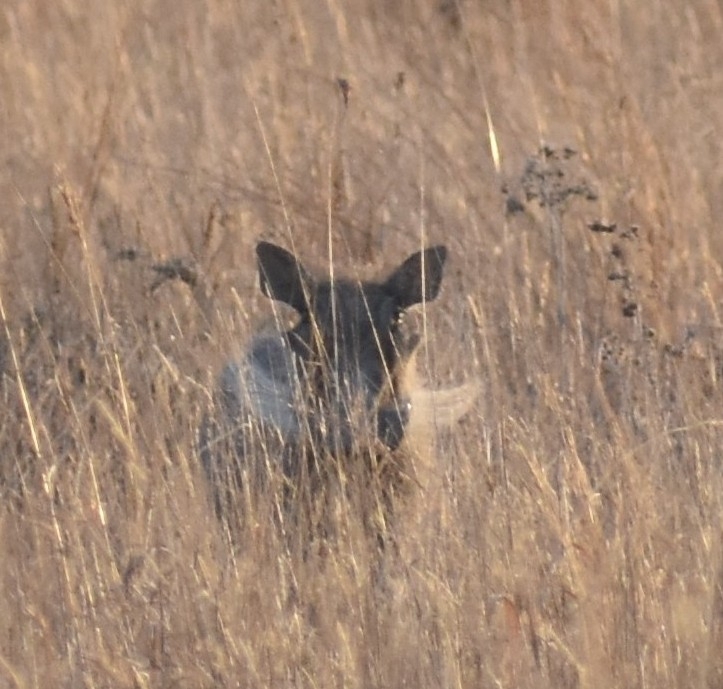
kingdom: Animalia
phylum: Chordata
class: Mammalia
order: Artiodactyla
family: Suidae
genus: Phacochoerus
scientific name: Phacochoerus africanus
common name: Common warthog
